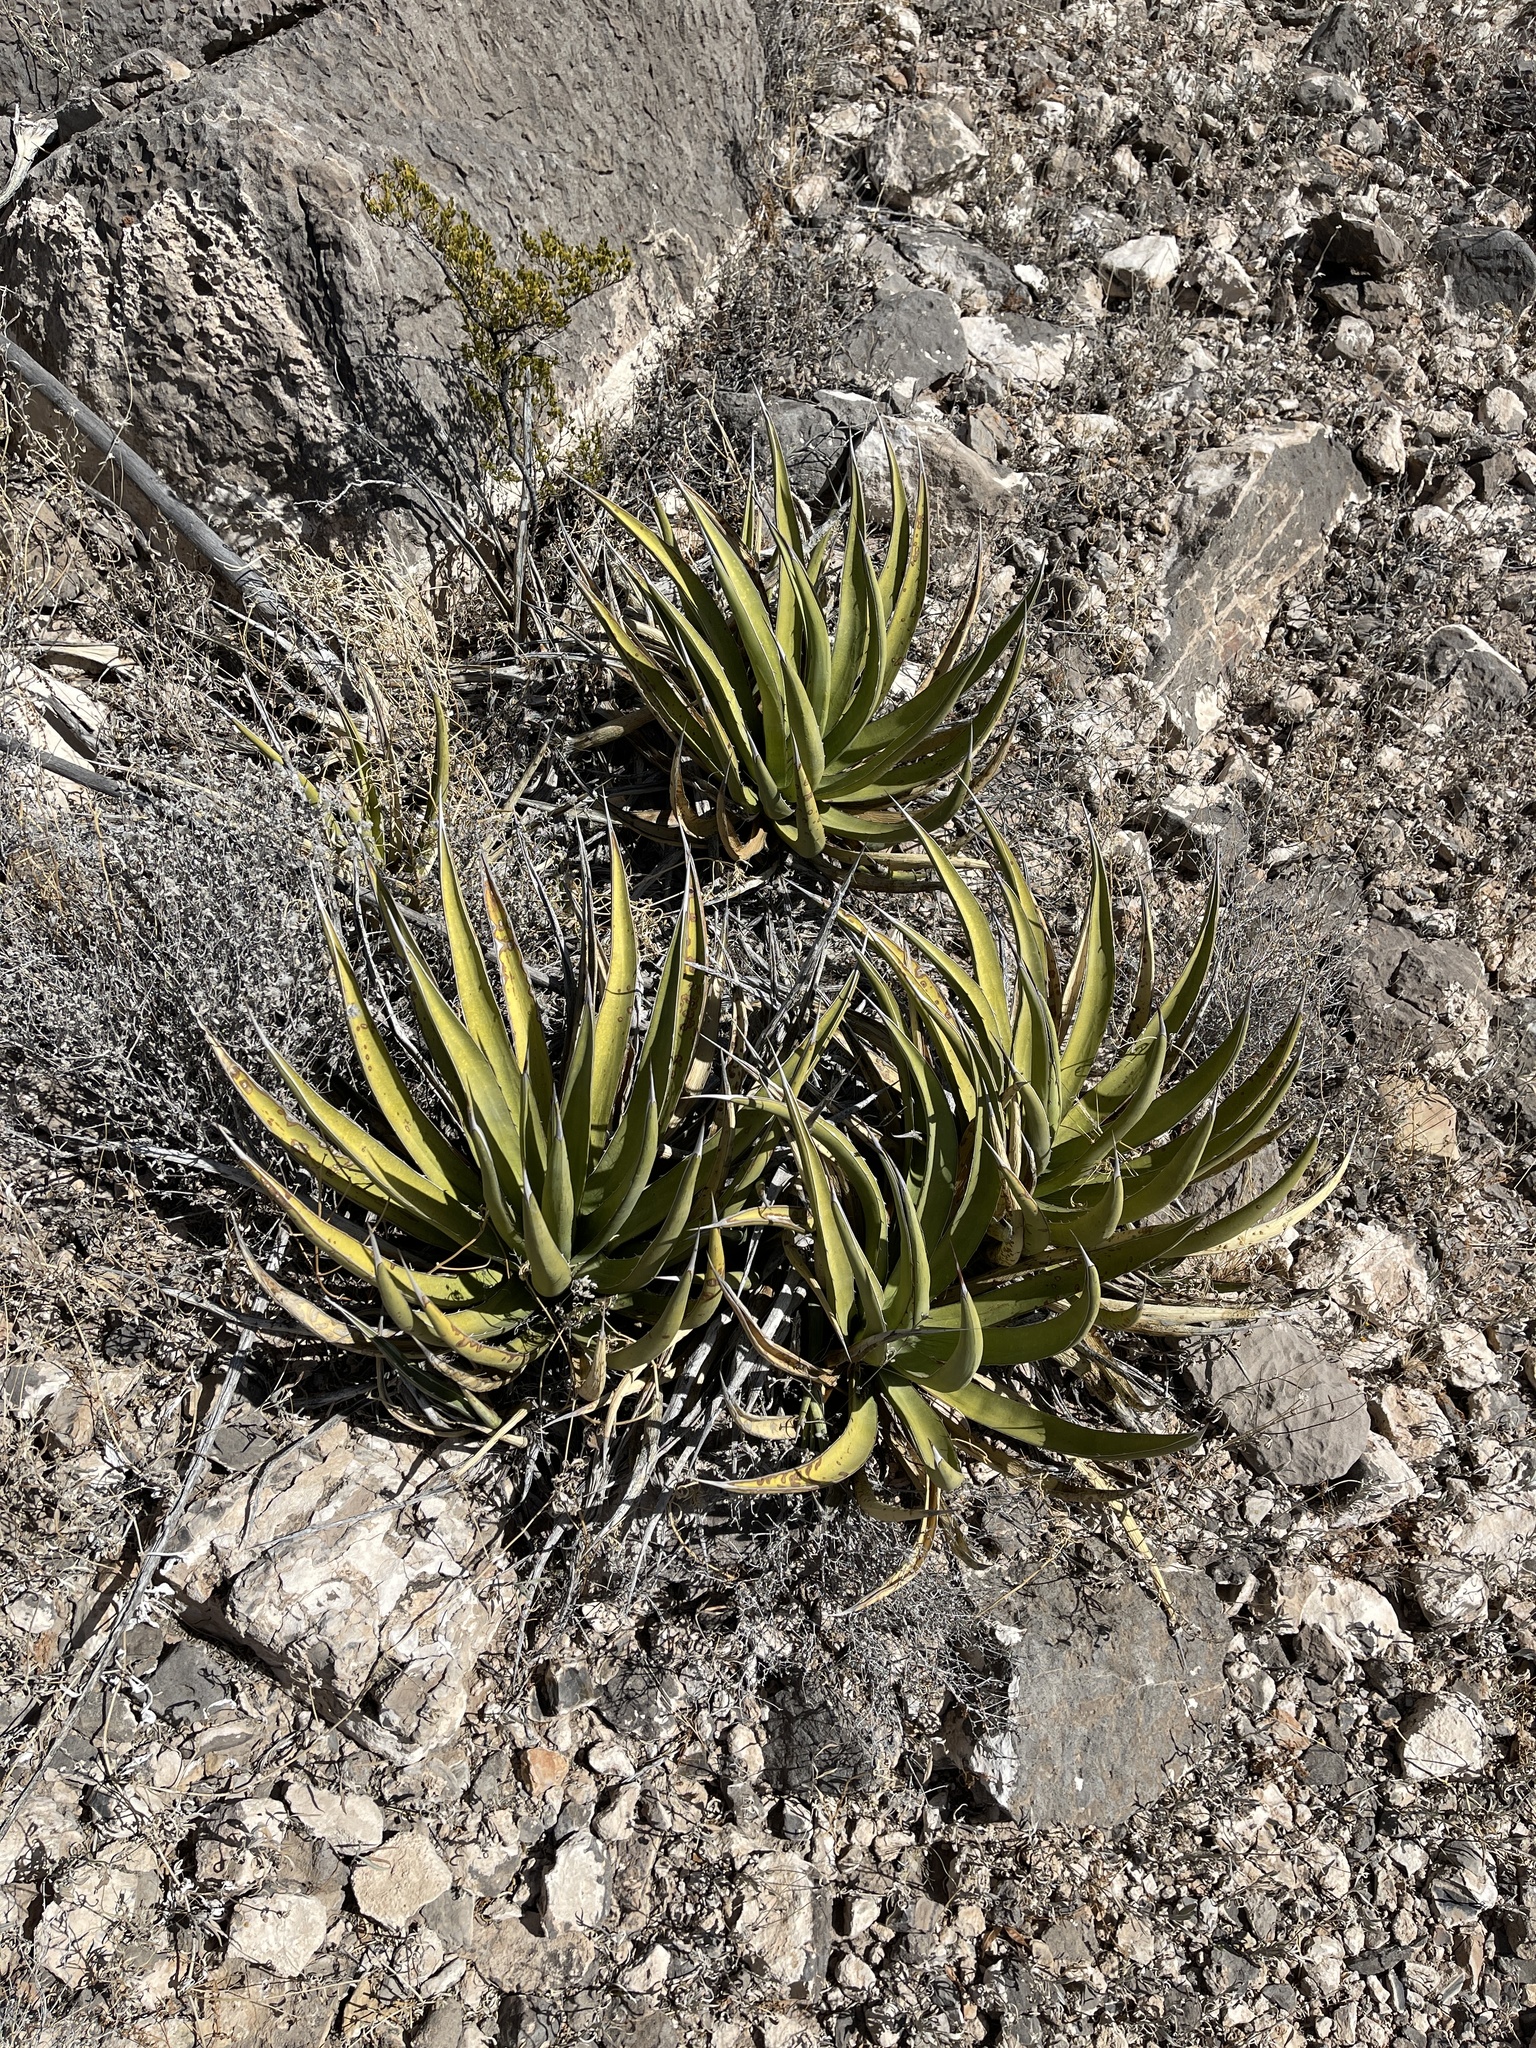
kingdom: Plantae
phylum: Tracheophyta
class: Liliopsida
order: Asparagales
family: Asparagaceae
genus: Agave
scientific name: Agave lechuguilla
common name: Lecheguilla agave
